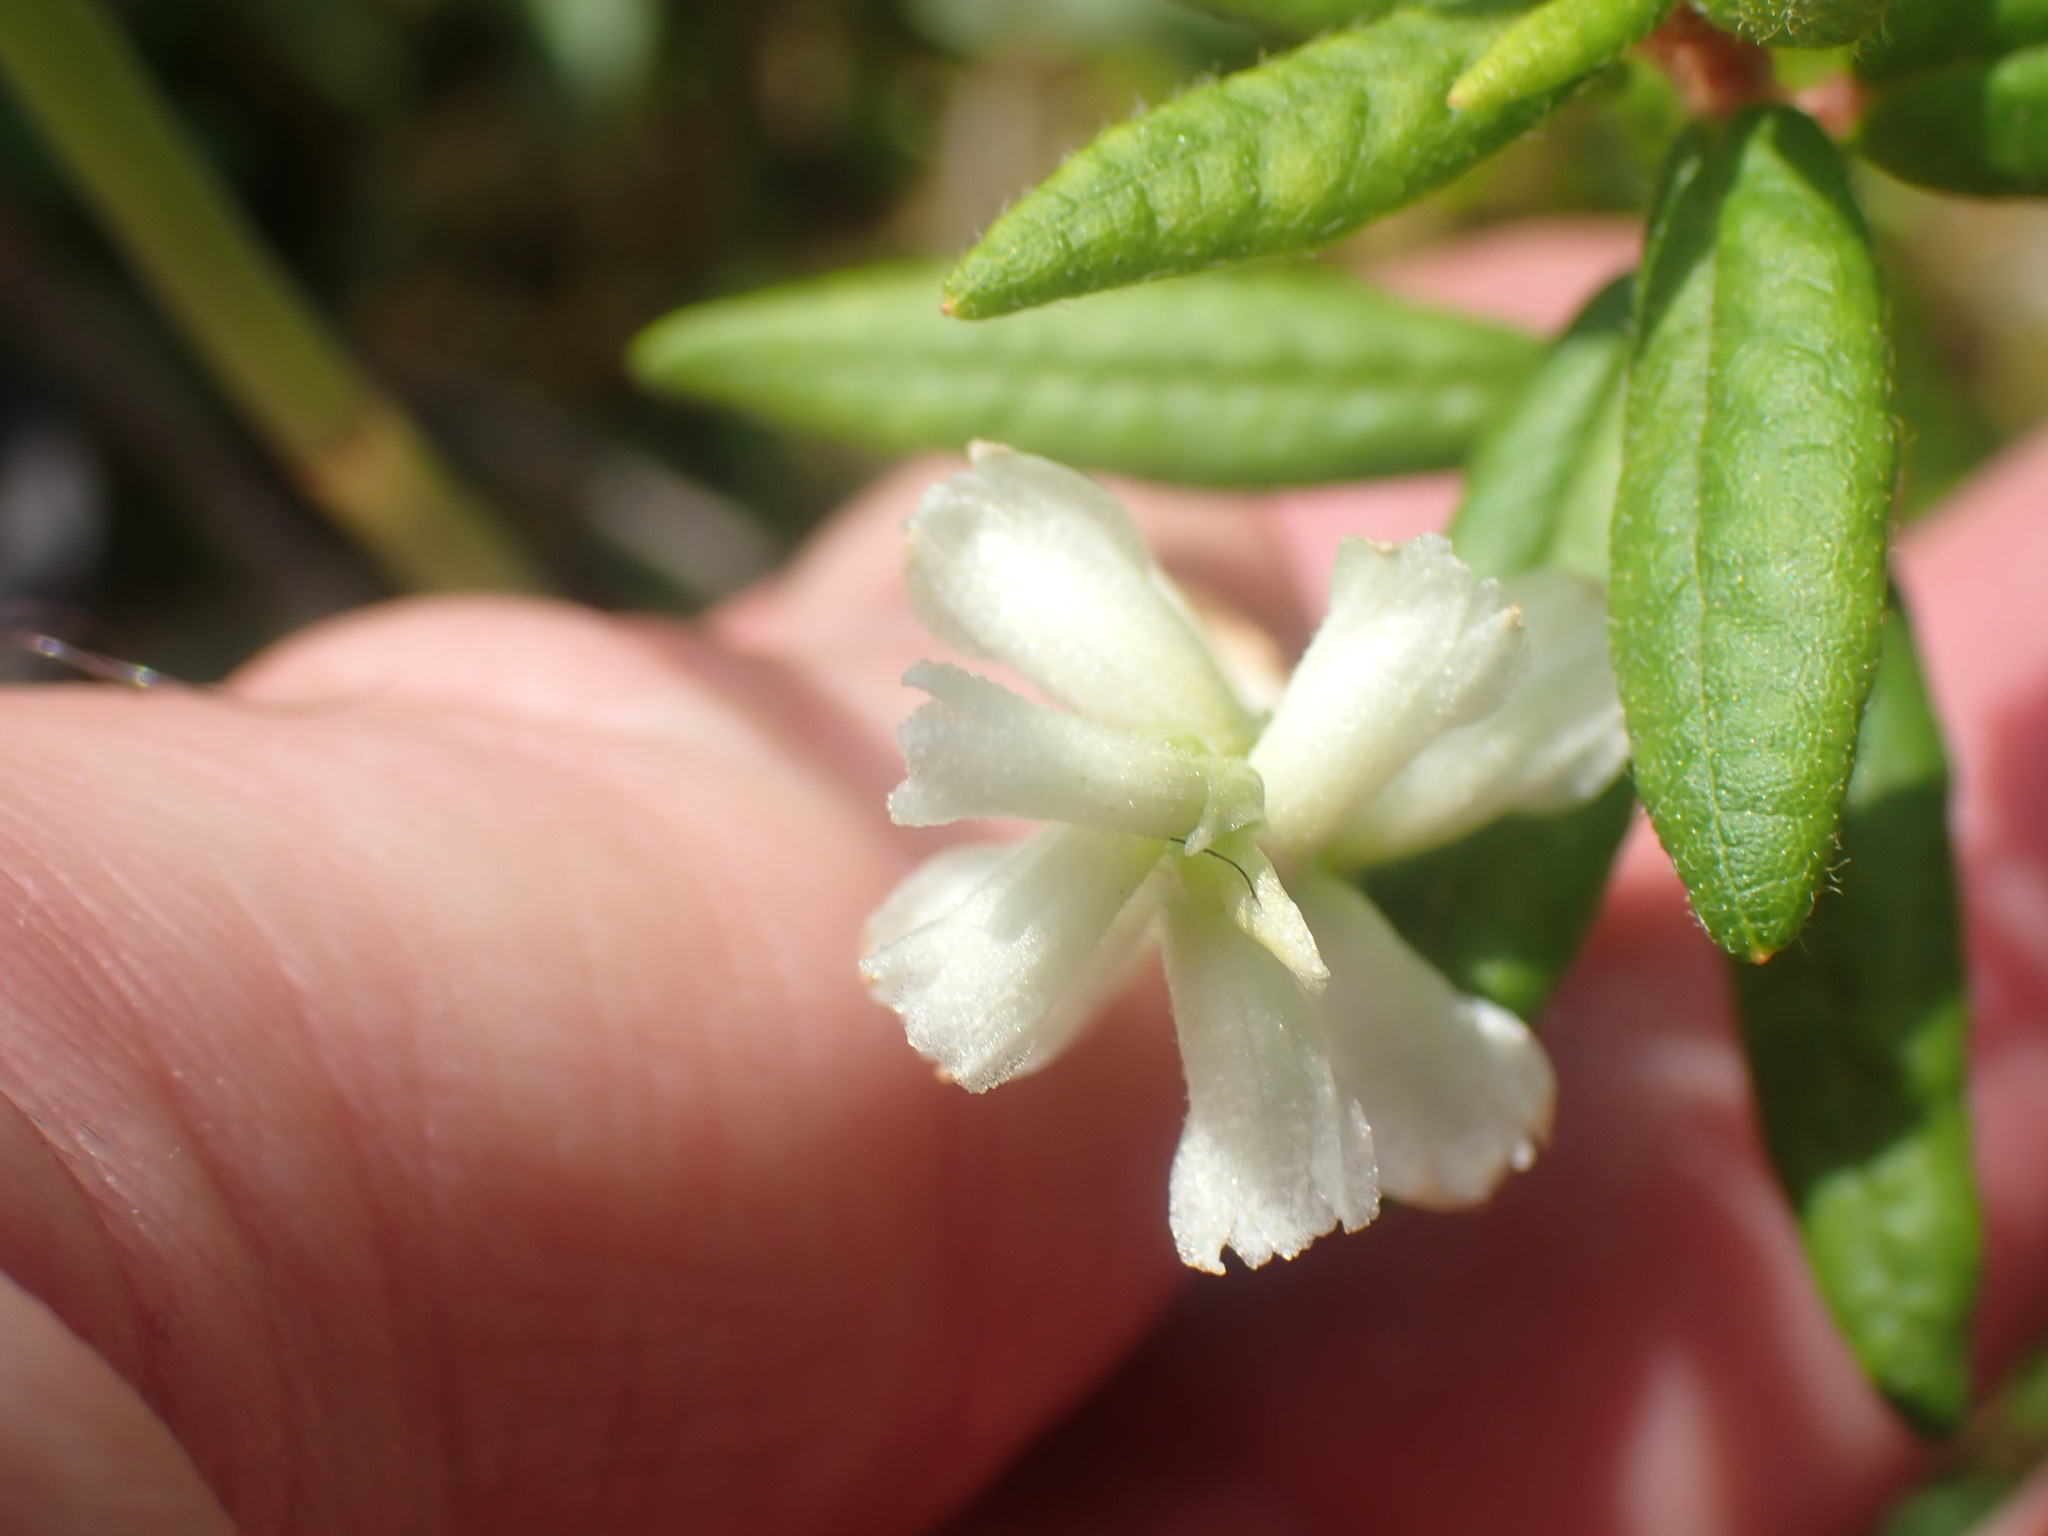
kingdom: Plantae
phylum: Tracheophyta
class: Liliopsida
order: Asparagales
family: Orchidaceae
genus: Spiranthes
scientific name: Spiranthes romanzoffiana
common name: Irish lady's-tresses
